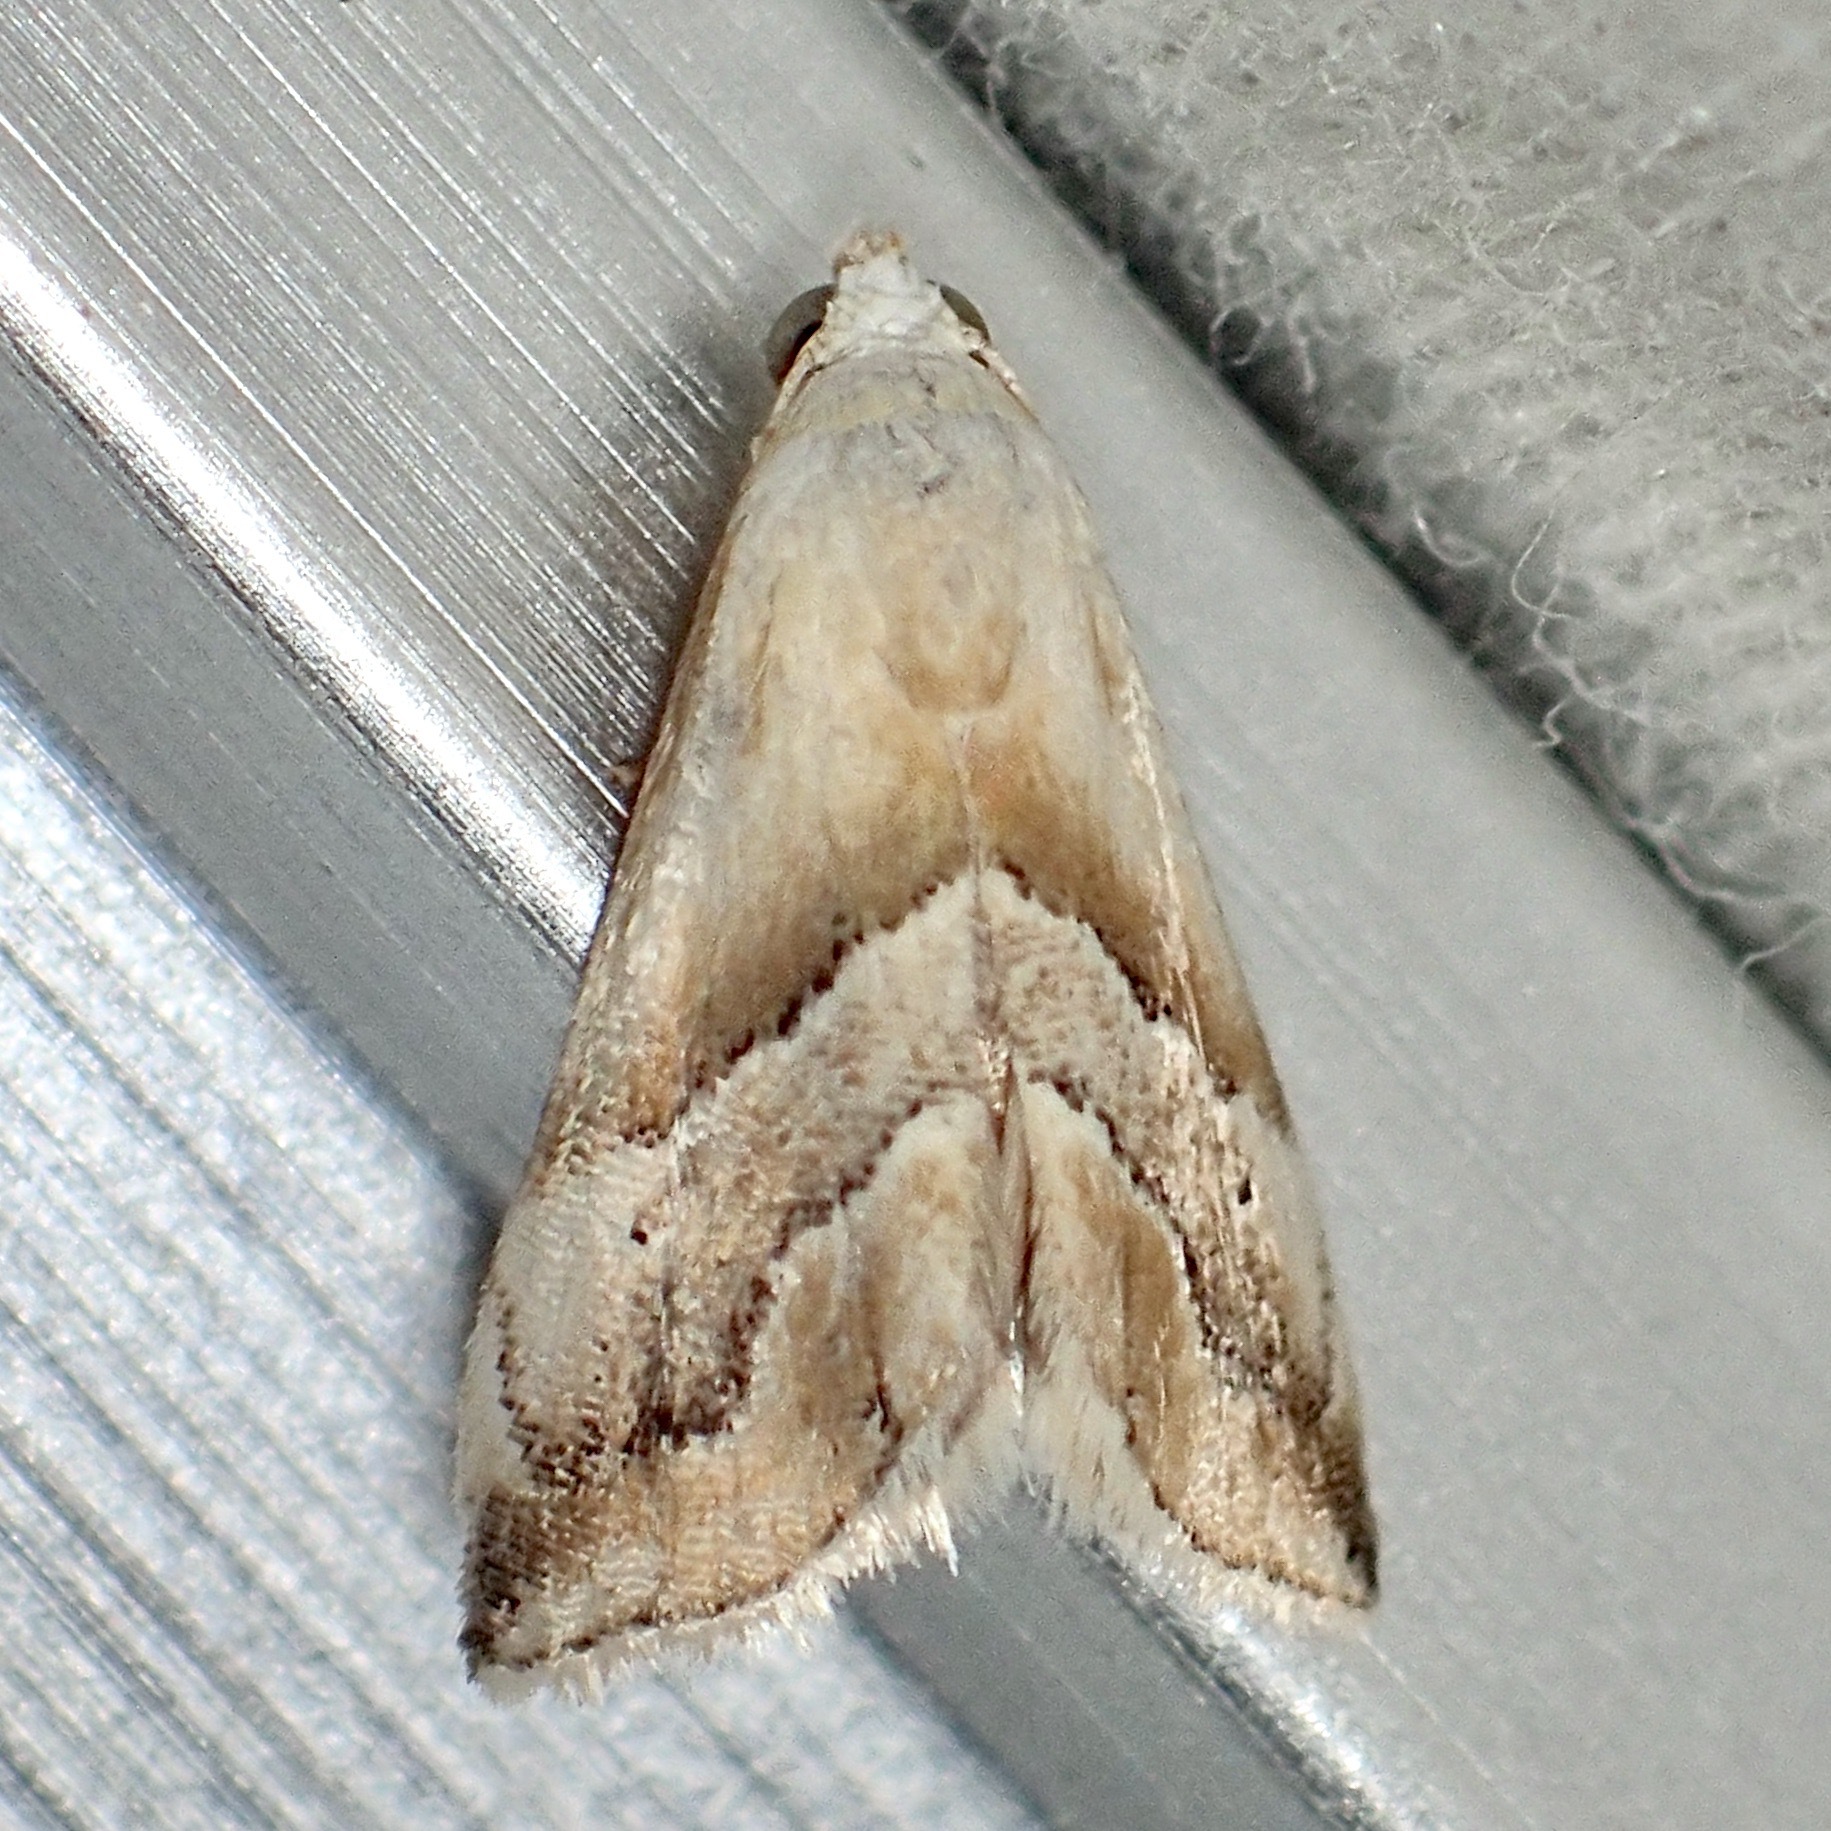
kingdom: Animalia
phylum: Arthropoda
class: Insecta
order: Lepidoptera
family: Noctuidae
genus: Eublemma
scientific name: Eublemma roseana
